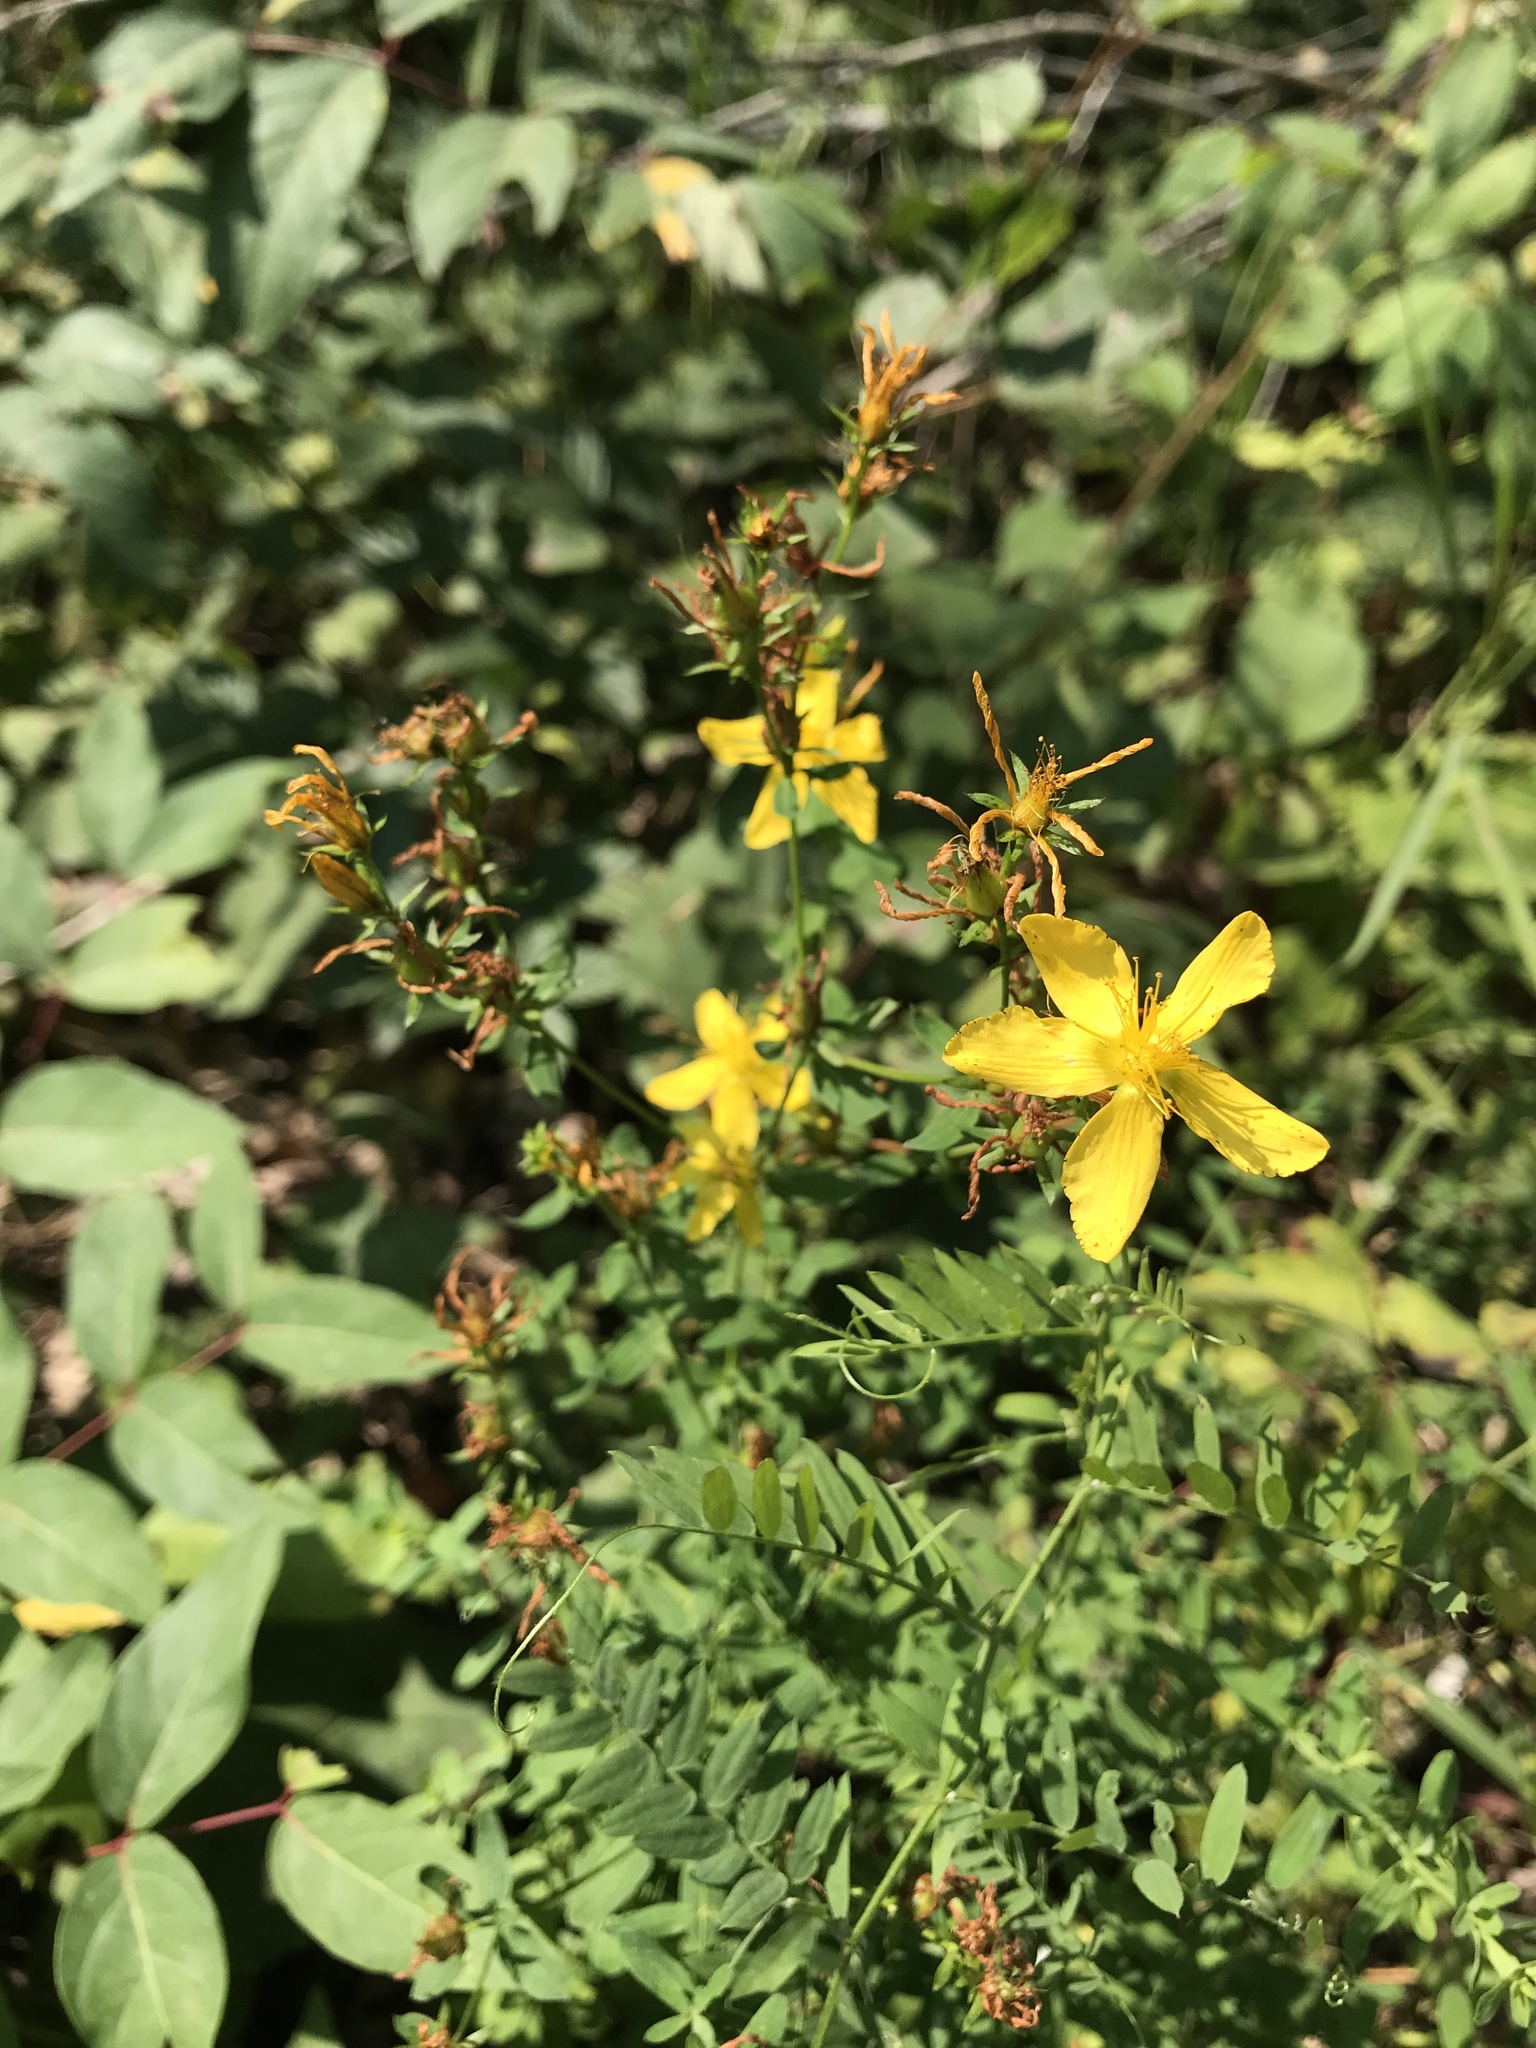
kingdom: Plantae
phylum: Tracheophyta
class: Magnoliopsida
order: Malpighiales
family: Hypericaceae
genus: Hypericum
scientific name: Hypericum perforatum
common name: Common st. johnswort
